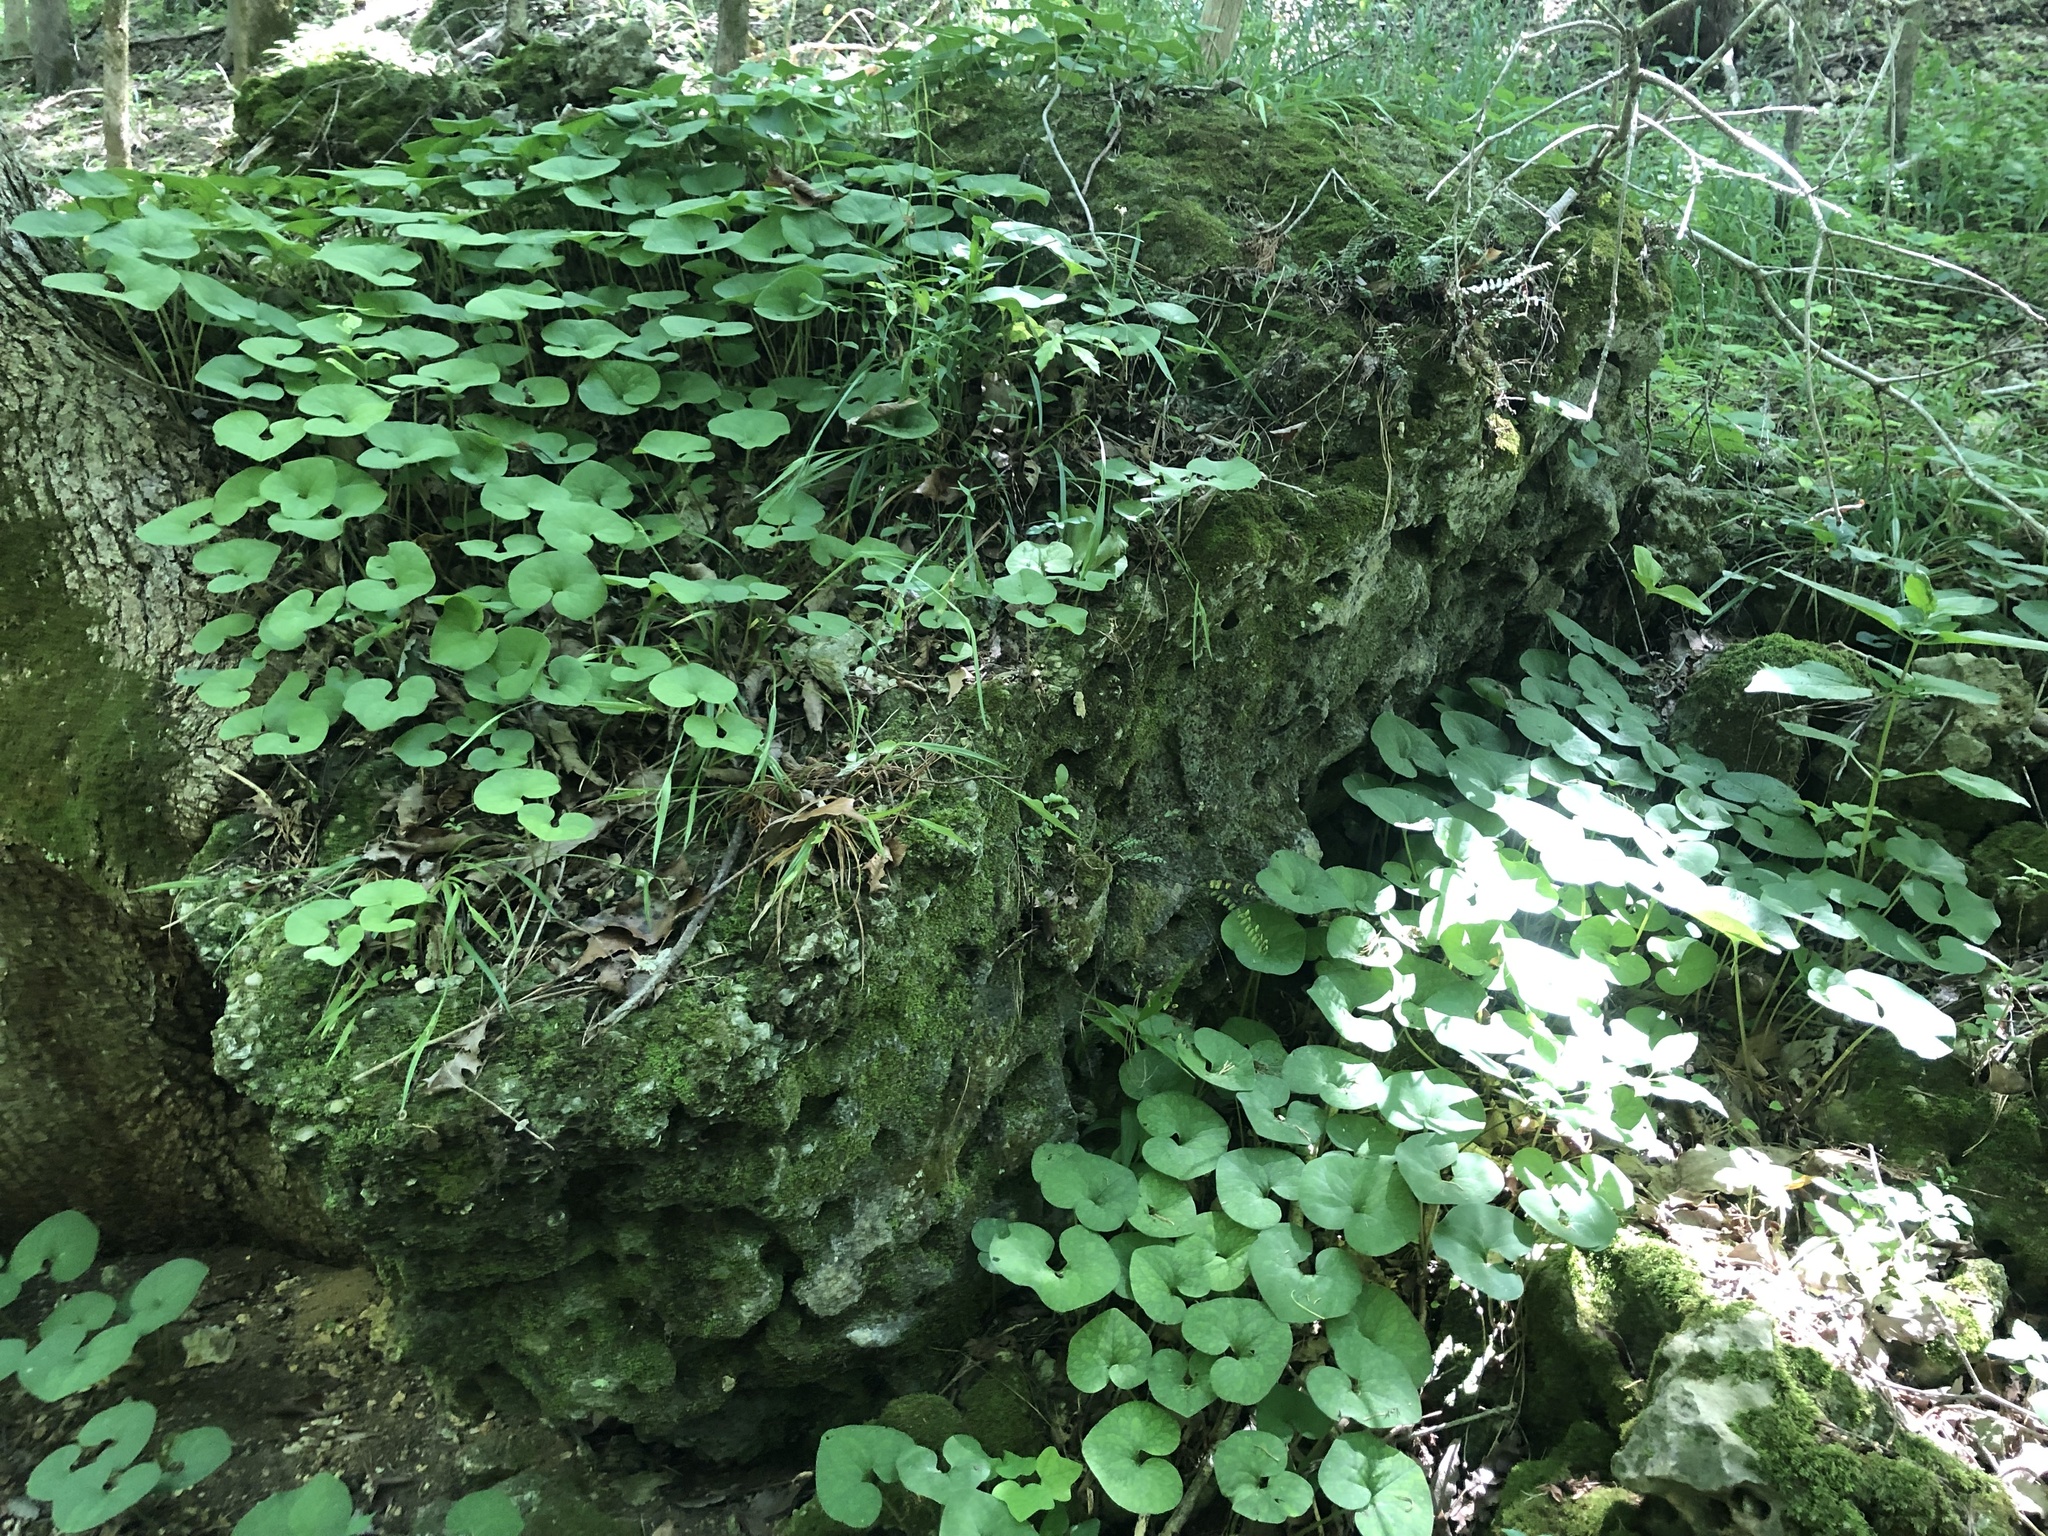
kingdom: Plantae
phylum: Tracheophyta
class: Magnoliopsida
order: Piperales
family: Aristolochiaceae
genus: Asarum
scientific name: Asarum canadense
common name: Wild ginger
